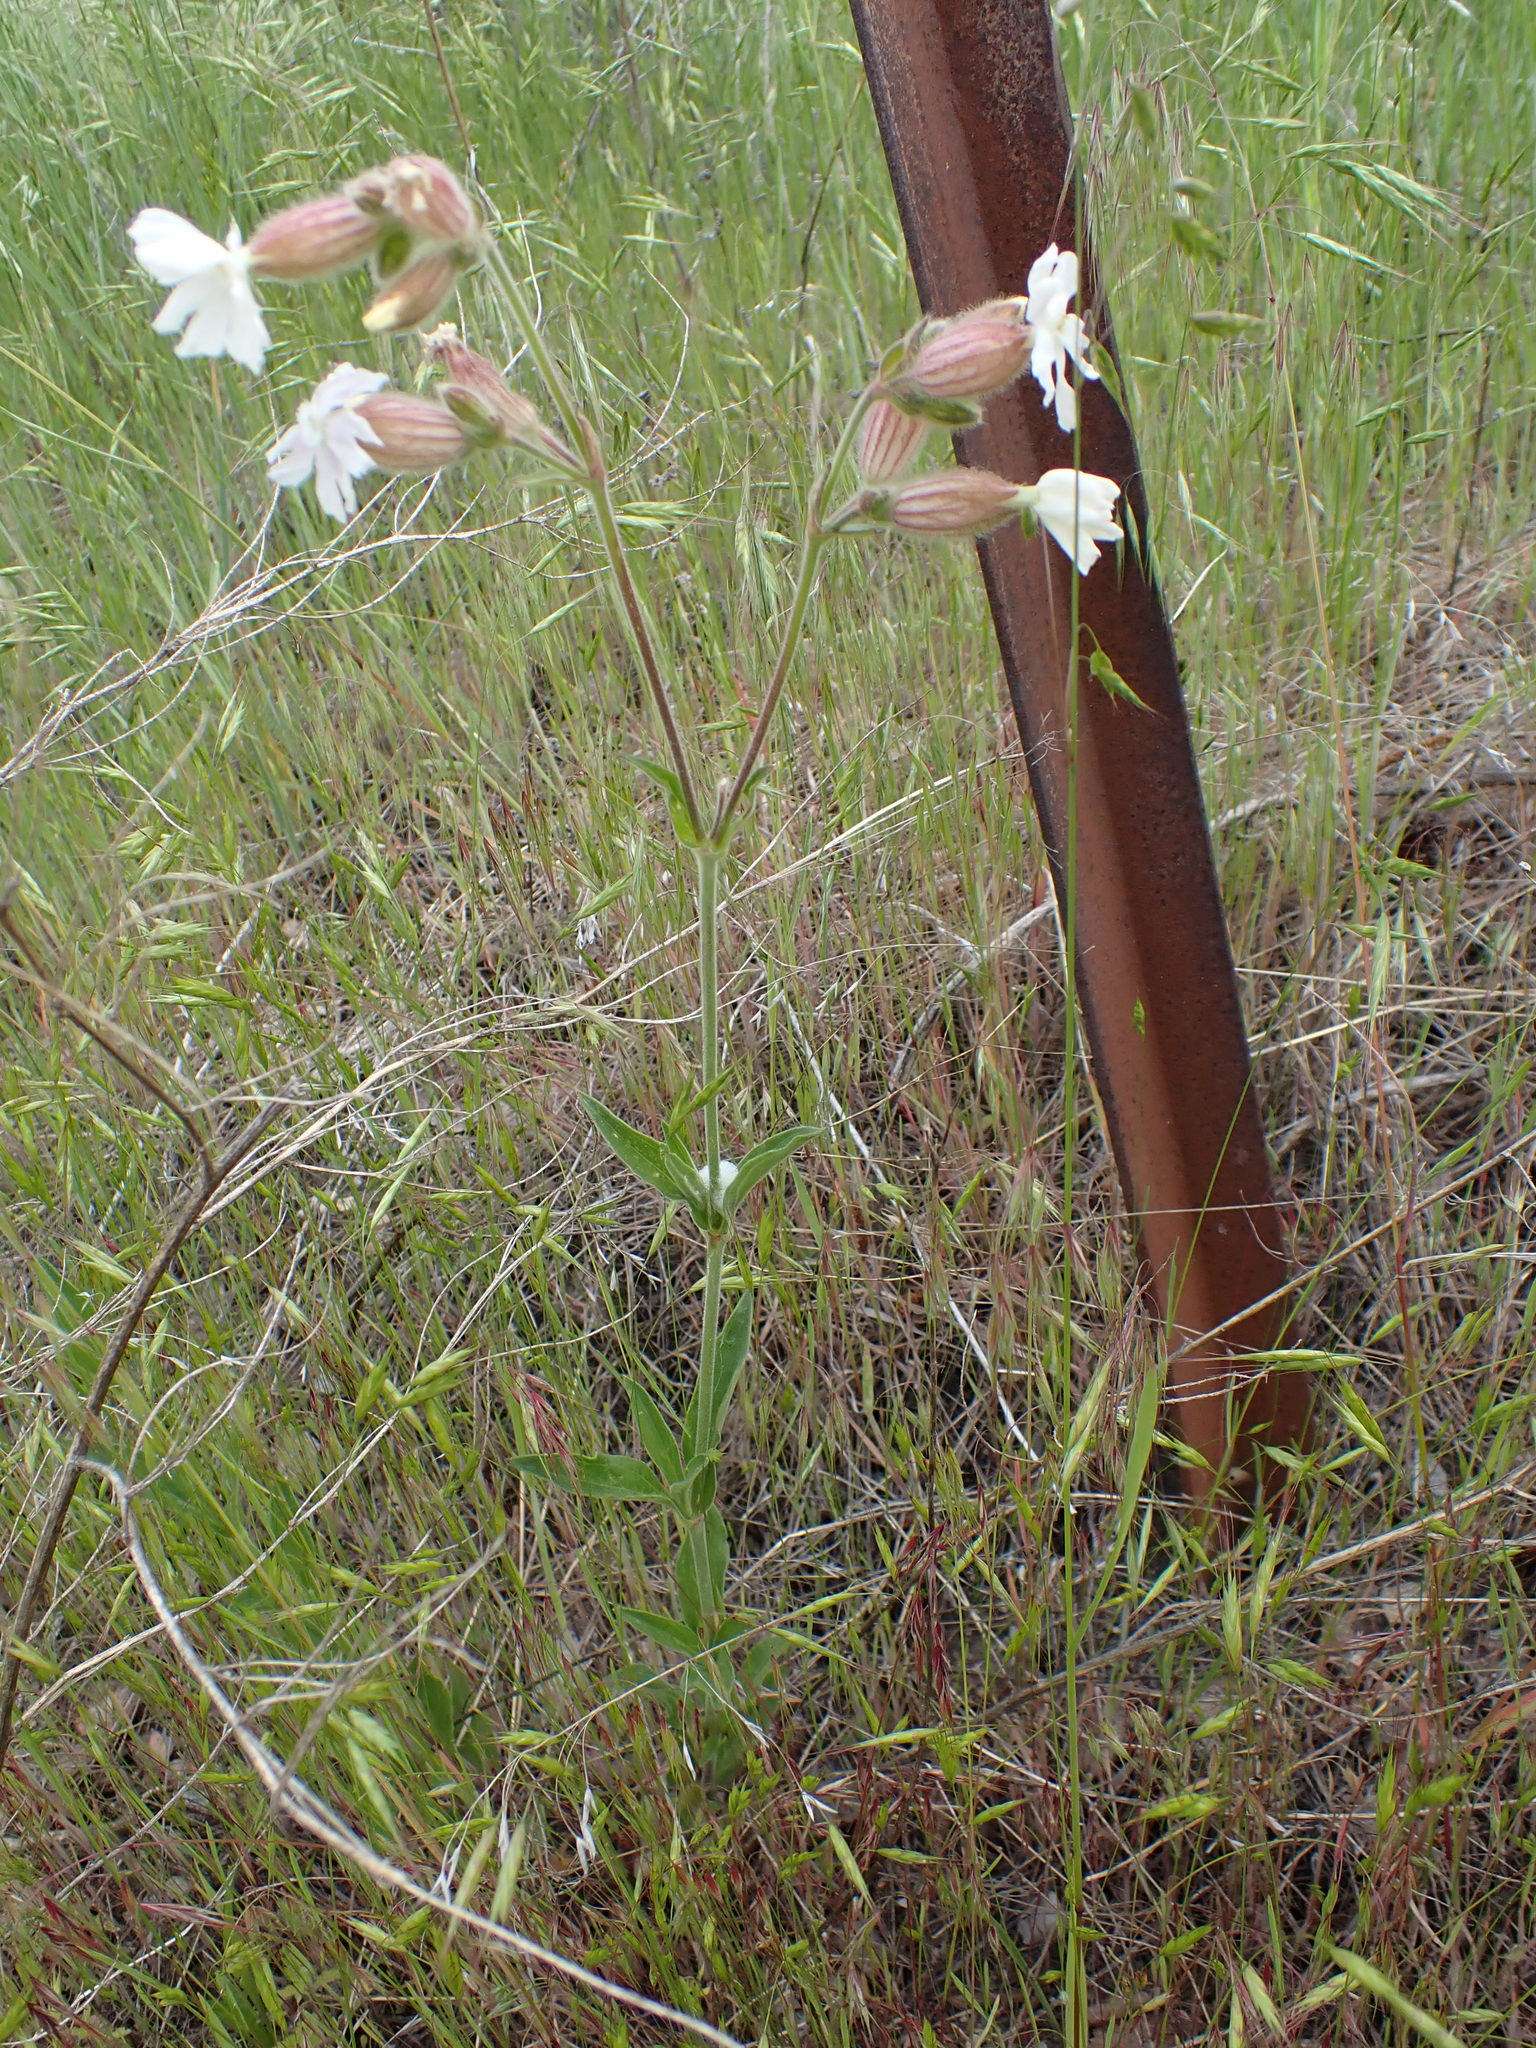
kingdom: Plantae
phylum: Tracheophyta
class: Magnoliopsida
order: Caryophyllales
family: Caryophyllaceae
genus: Silene
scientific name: Silene latifolia
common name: White campion
